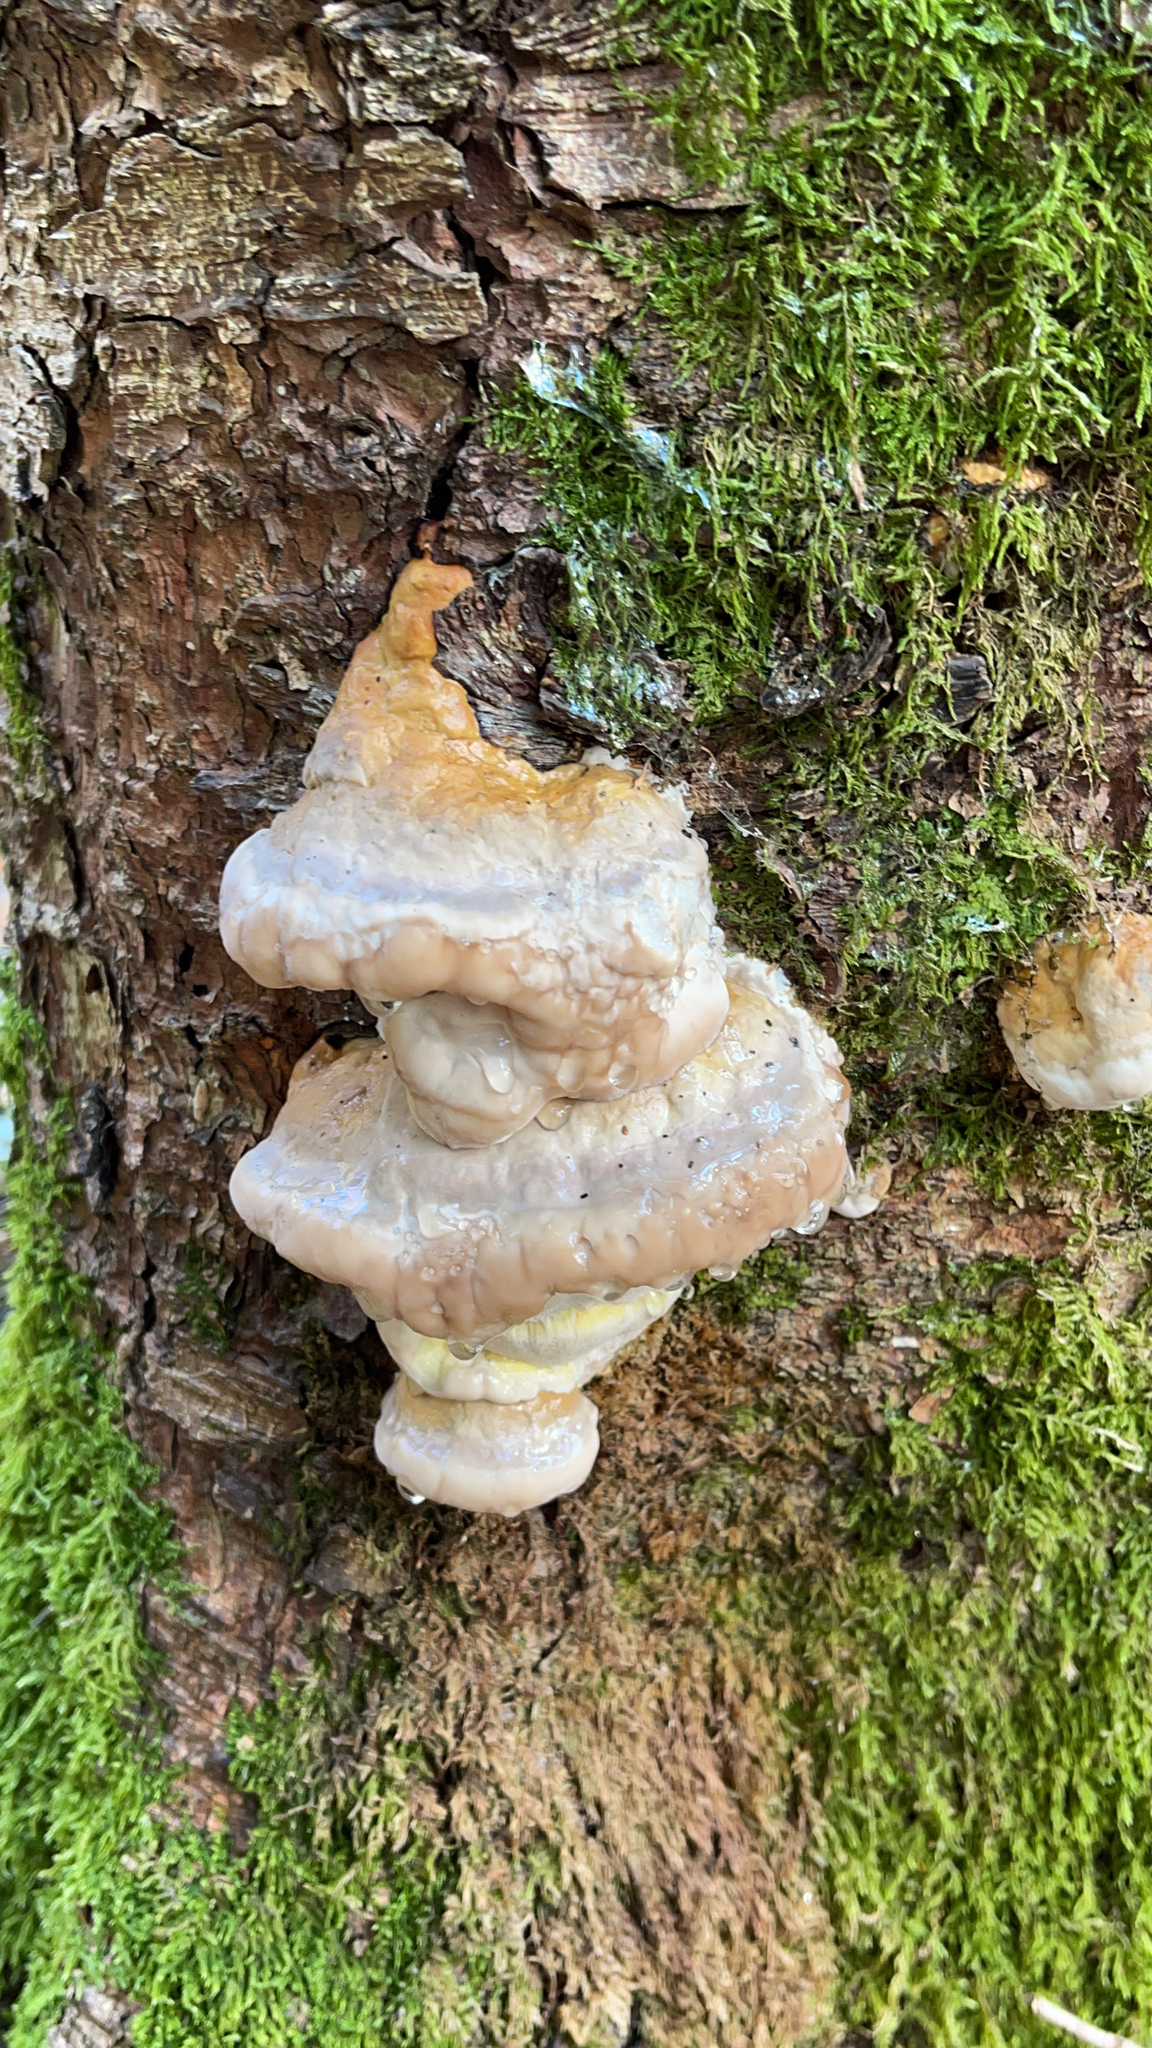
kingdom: Fungi
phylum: Basidiomycota
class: Agaricomycetes
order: Polyporales
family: Fomitopsidaceae
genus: Fomitopsis
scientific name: Fomitopsis pinicola
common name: Red-belted bracket
